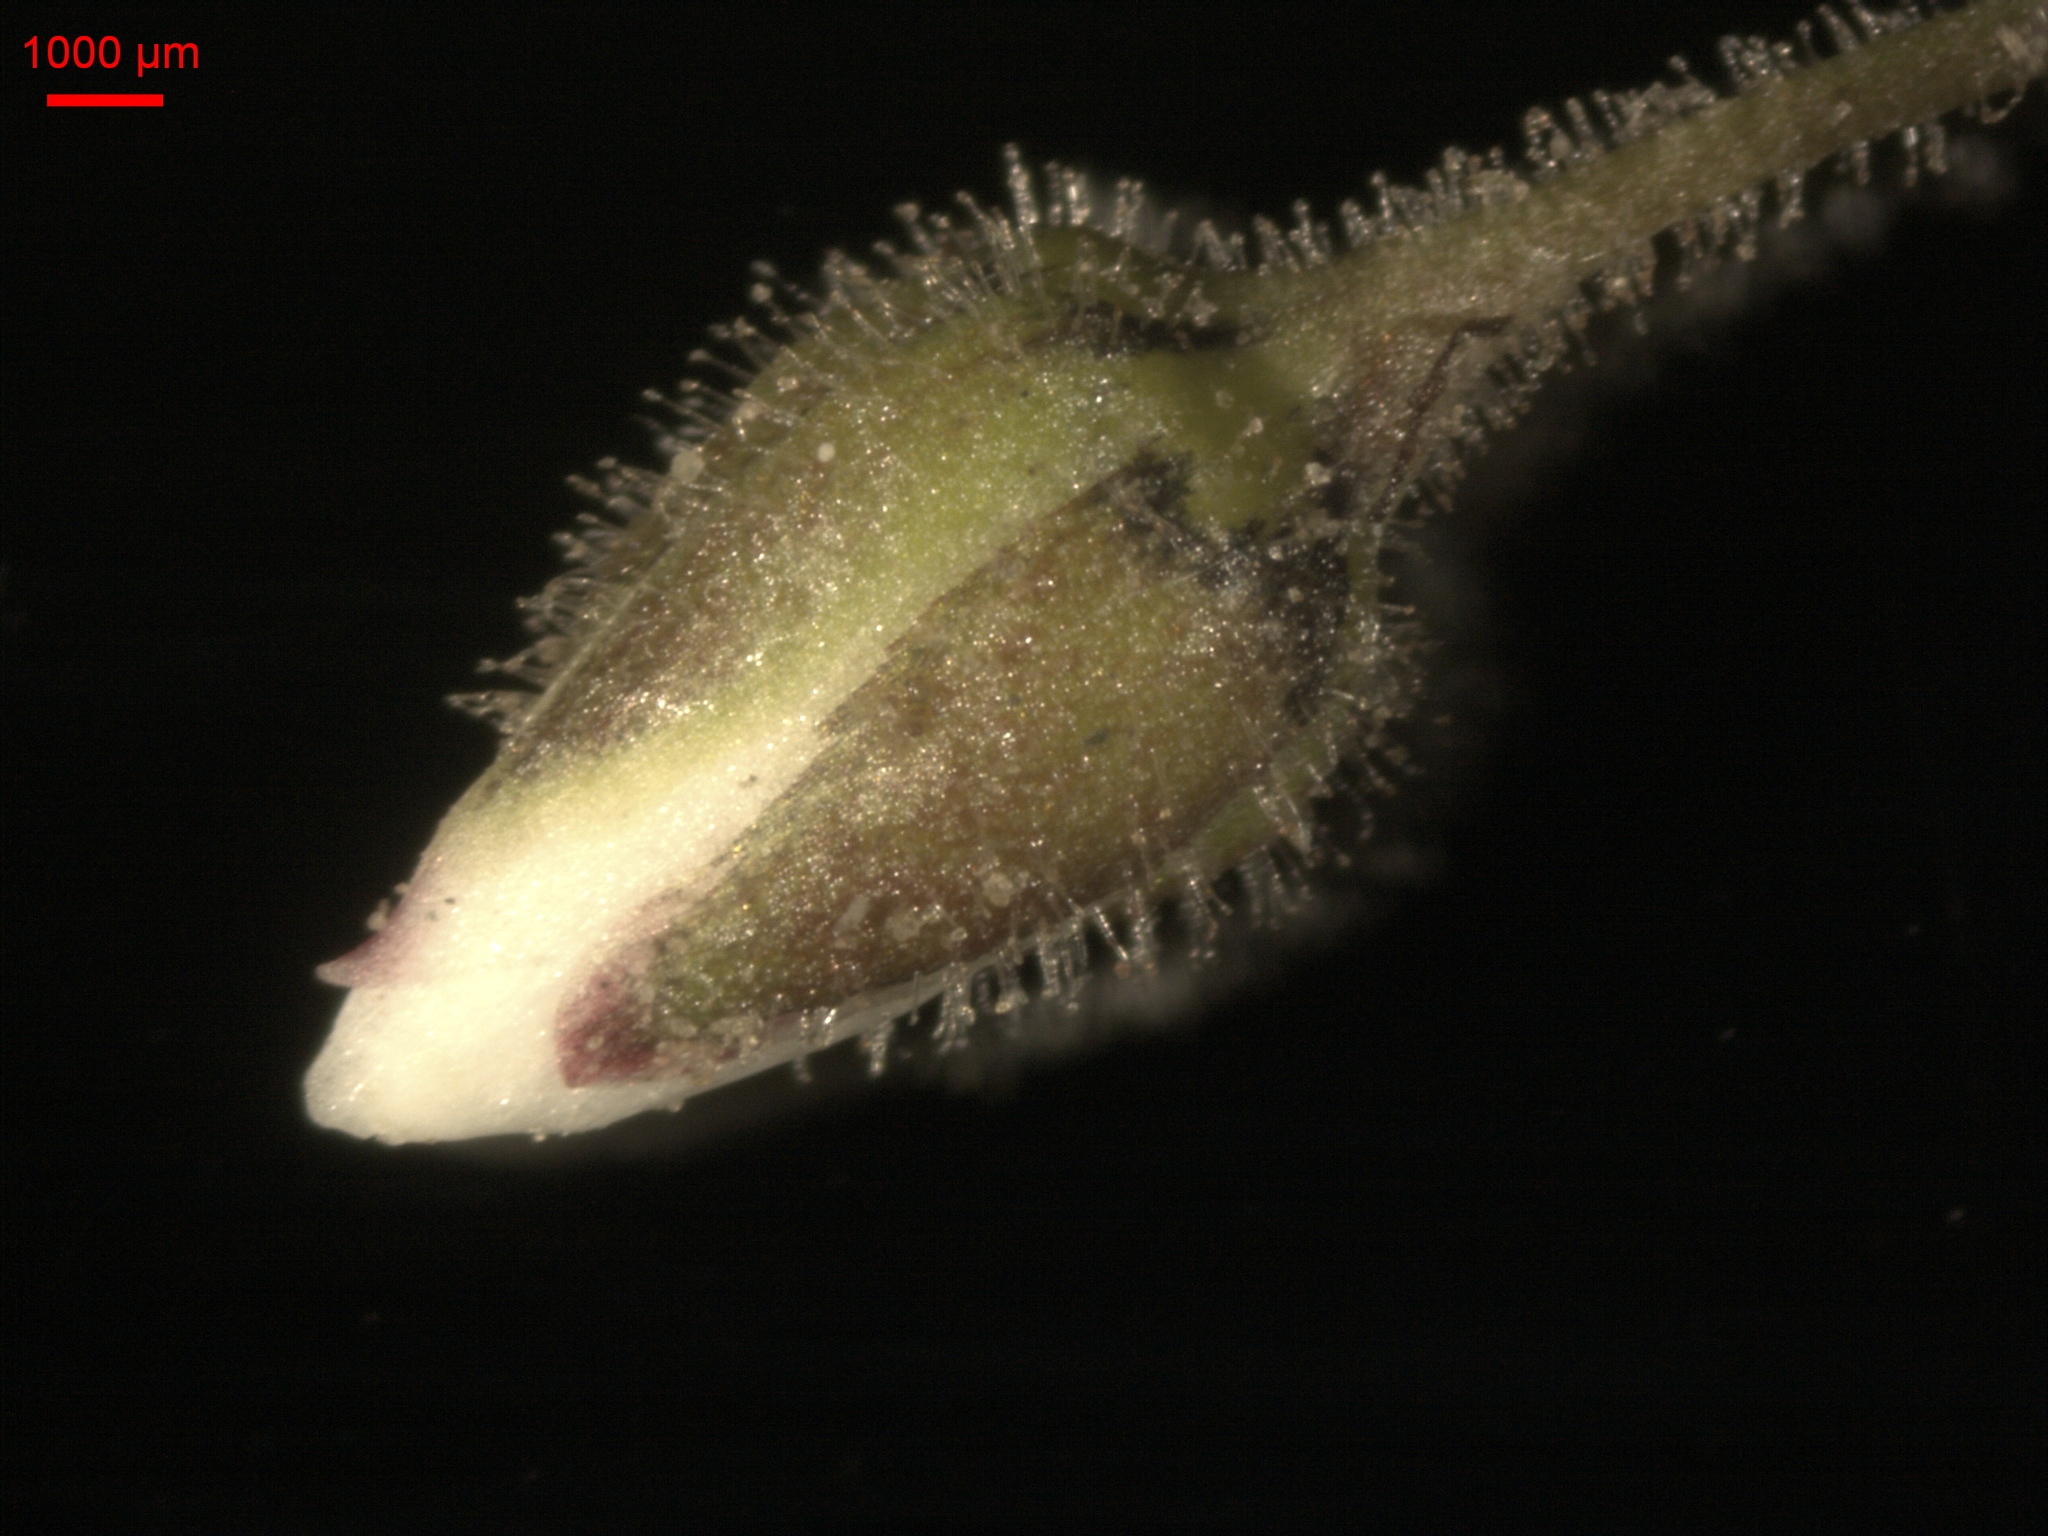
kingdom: Plantae
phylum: Tracheophyta
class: Magnoliopsida
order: Caryophyllales
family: Caryophyllaceae
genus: Spergula
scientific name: Spergula arvensis
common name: Corn spurrey
